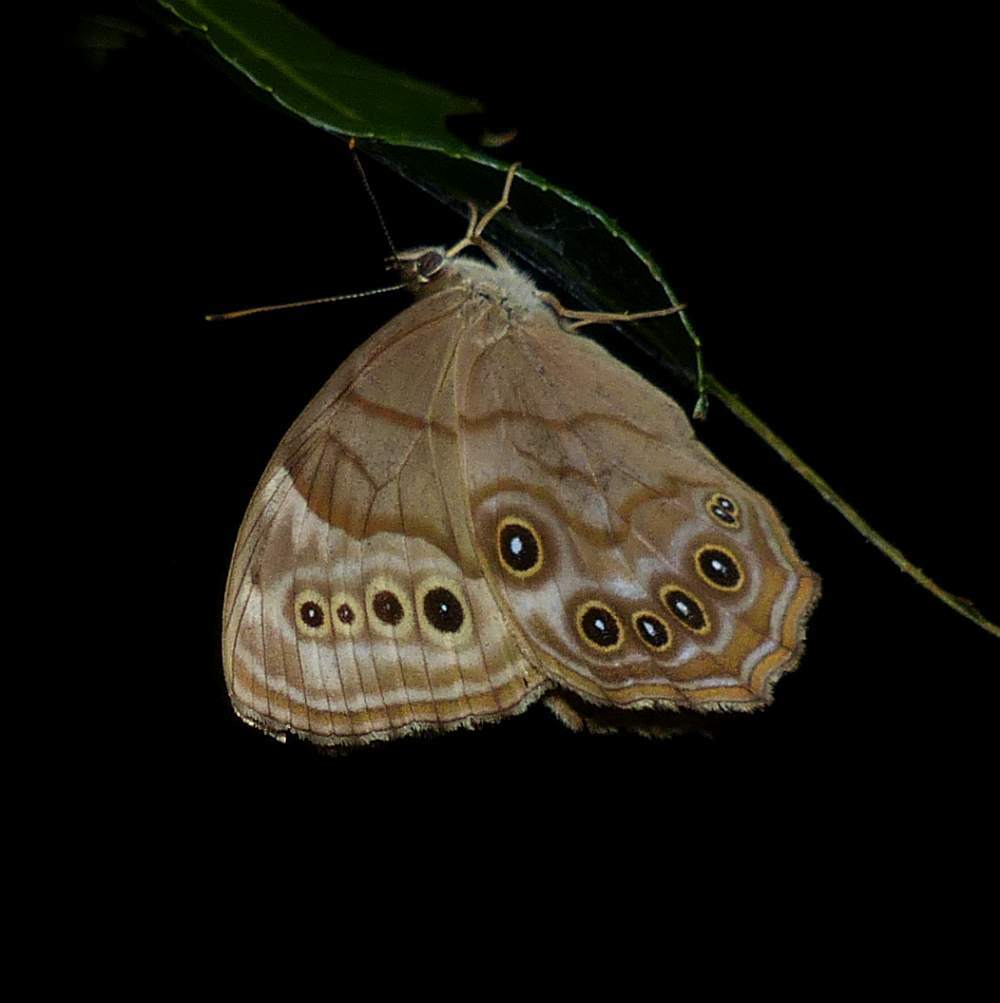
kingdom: Animalia
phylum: Arthropoda
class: Insecta
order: Lepidoptera
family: Nymphalidae
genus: Lethe
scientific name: Lethe anthedon
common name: Northern pearly-eye
